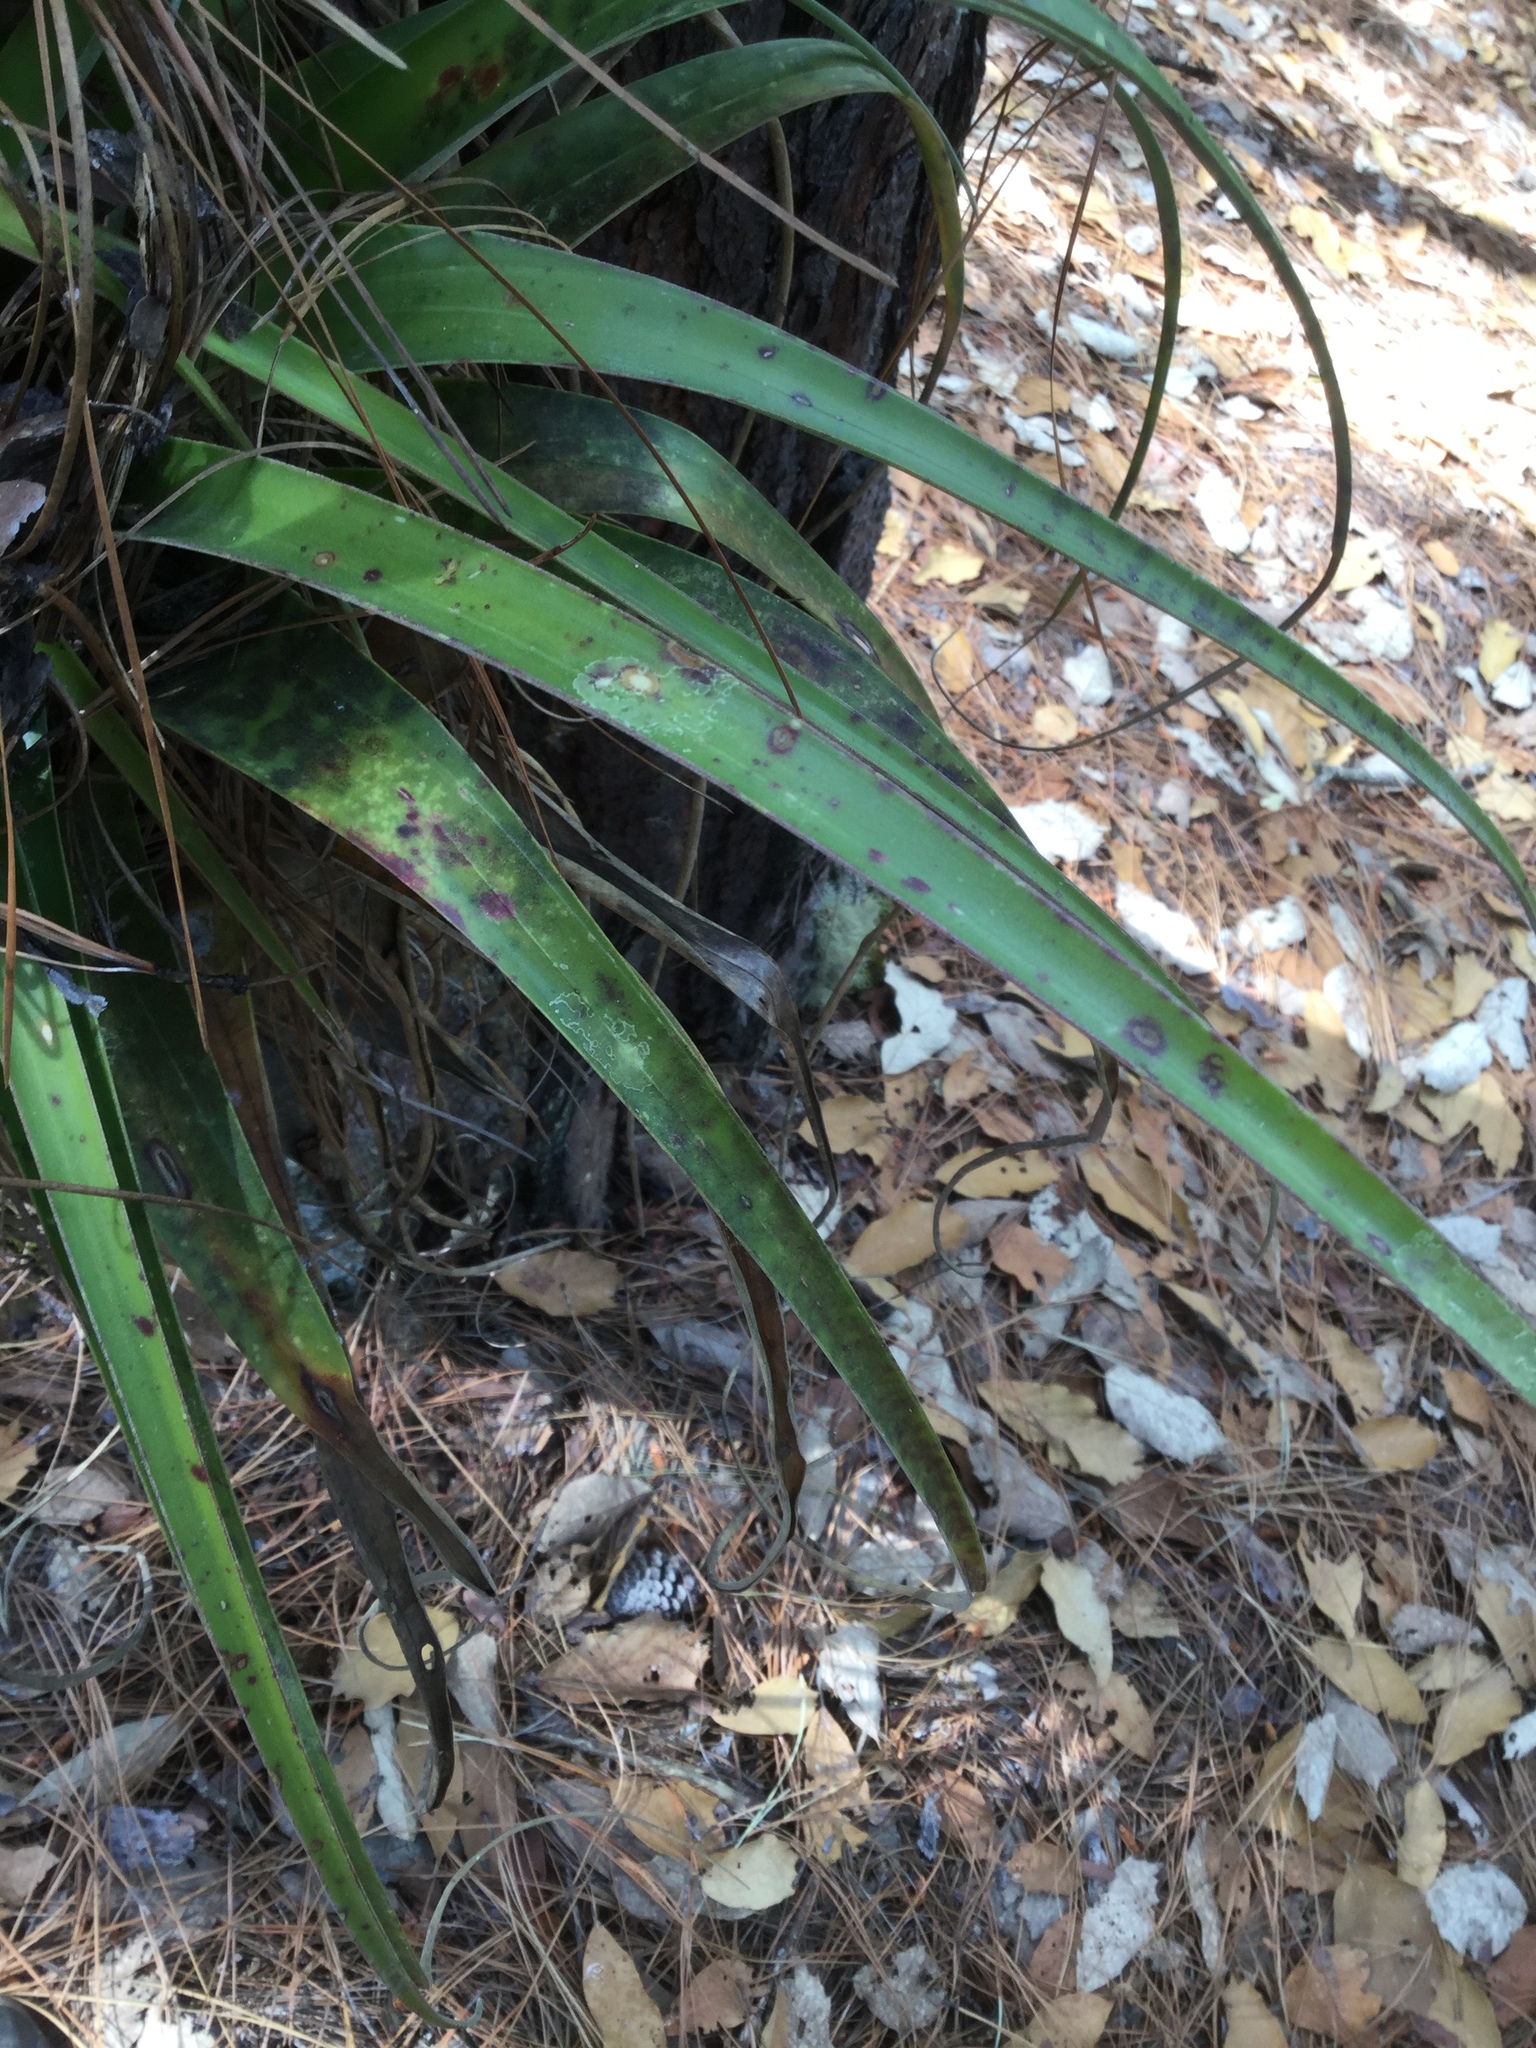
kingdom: Plantae
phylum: Tracheophyta
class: Liliopsida
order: Poales
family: Bromeliaceae
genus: Tillandsia
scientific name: Tillandsia langlasseana
